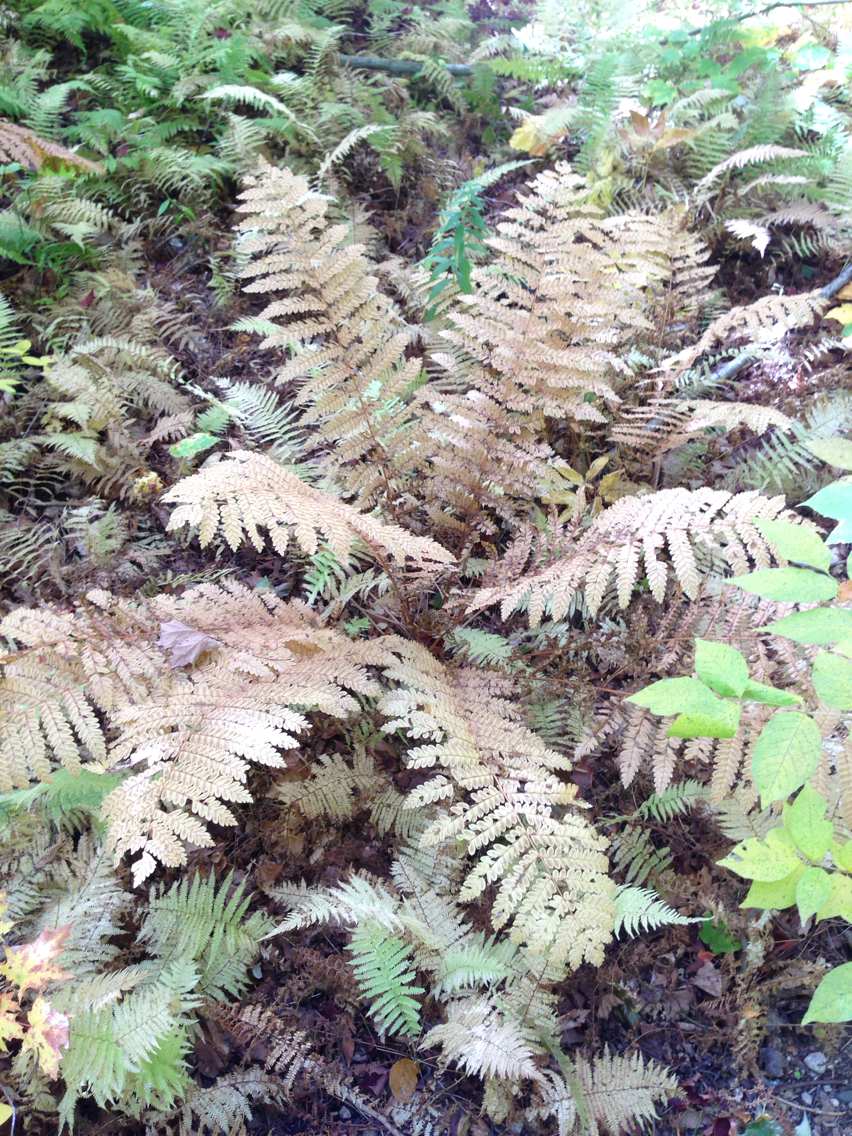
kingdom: Plantae
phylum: Tracheophyta
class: Polypodiopsida
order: Osmundales
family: Osmundaceae
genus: Claytosmunda
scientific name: Claytosmunda claytoniana
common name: Clayton's fern
